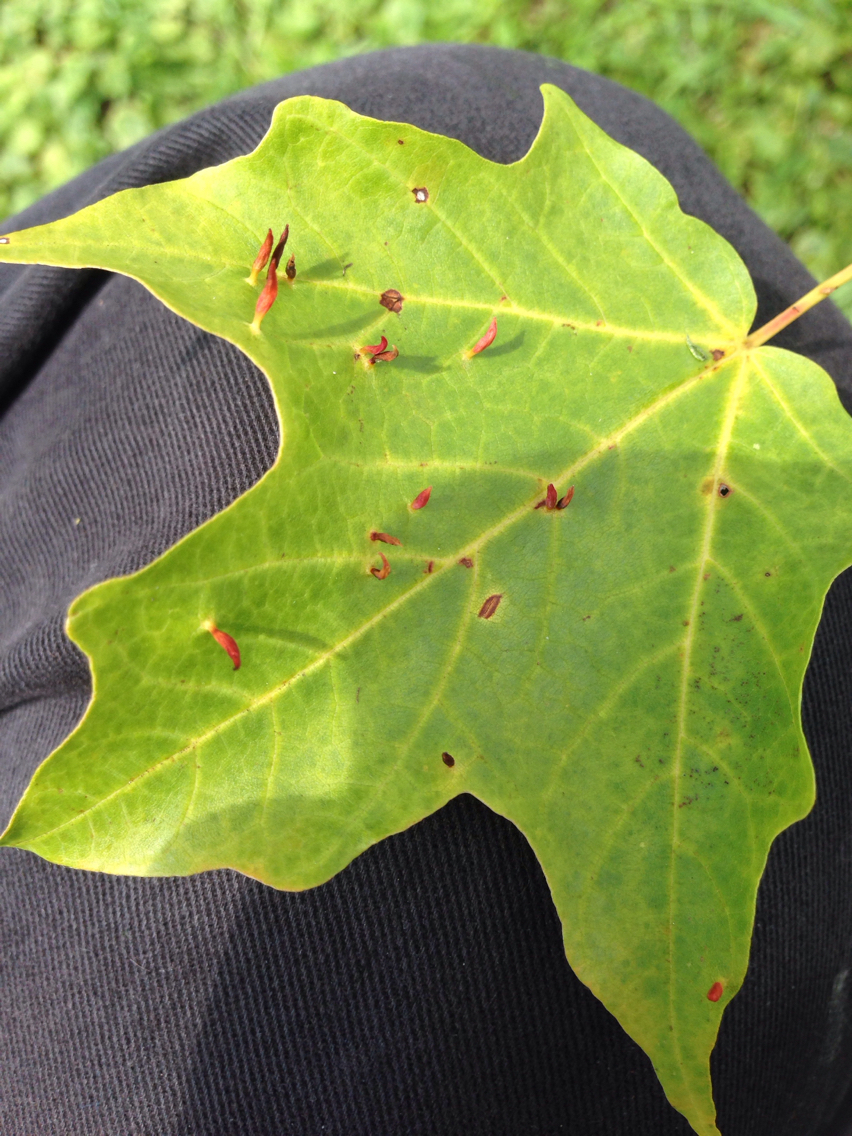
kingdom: Animalia
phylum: Arthropoda
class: Arachnida
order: Trombidiformes
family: Eriophyidae
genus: Vasates
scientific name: Vasates aceriscrumena
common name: Maple spindle gall mite
